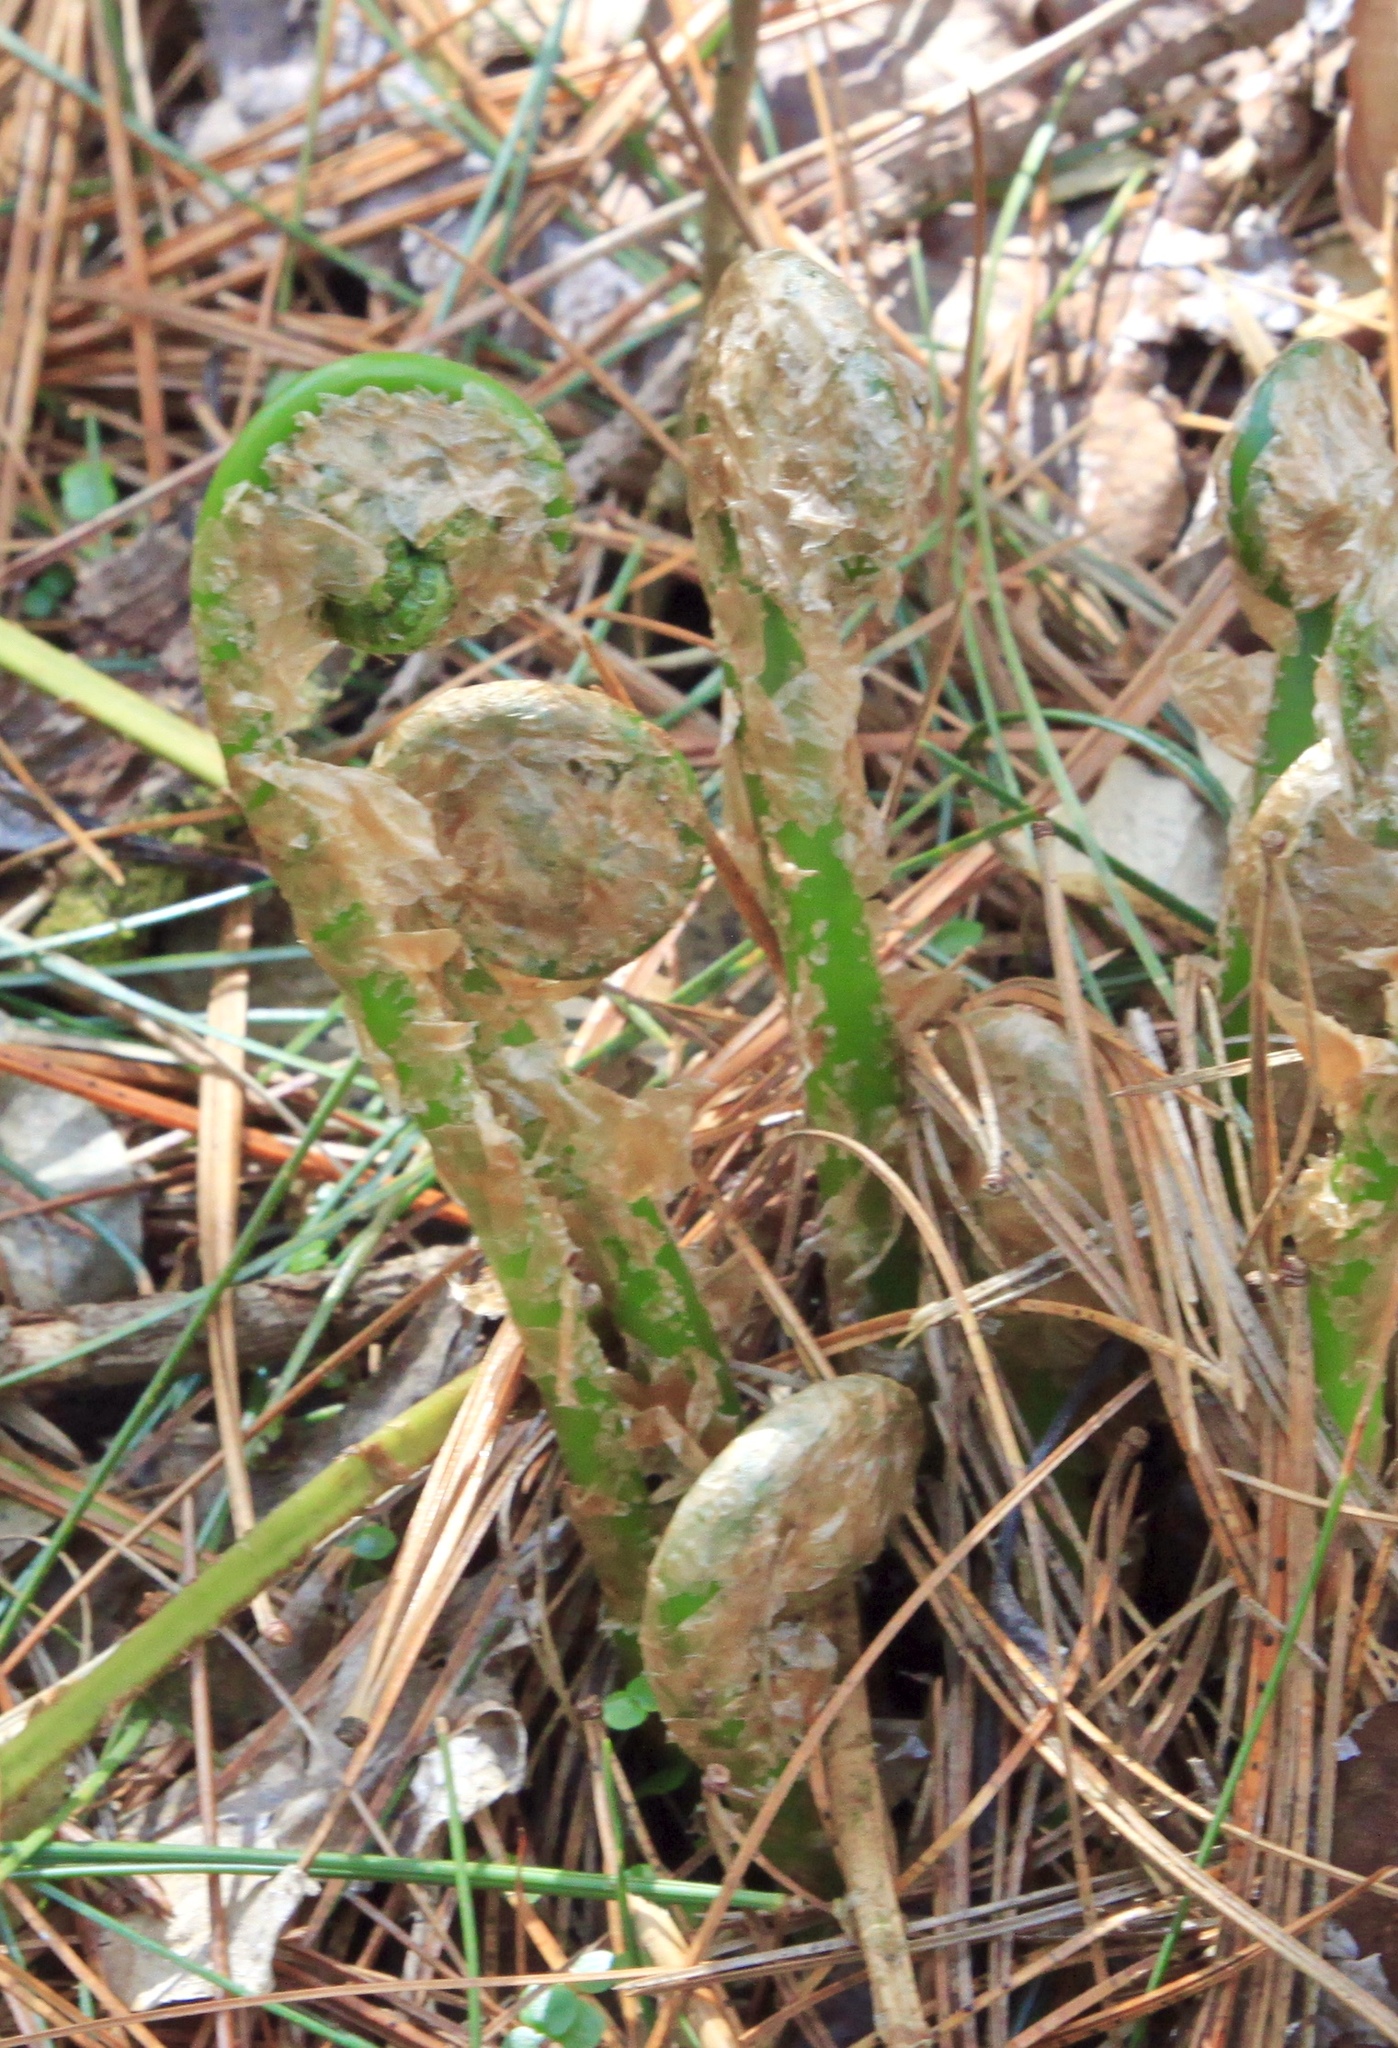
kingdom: Plantae
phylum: Tracheophyta
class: Polypodiopsida
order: Polypodiales
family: Dryopteridaceae
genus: Dryopteris
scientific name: Dryopteris marginalis
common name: Marginal wood fern
